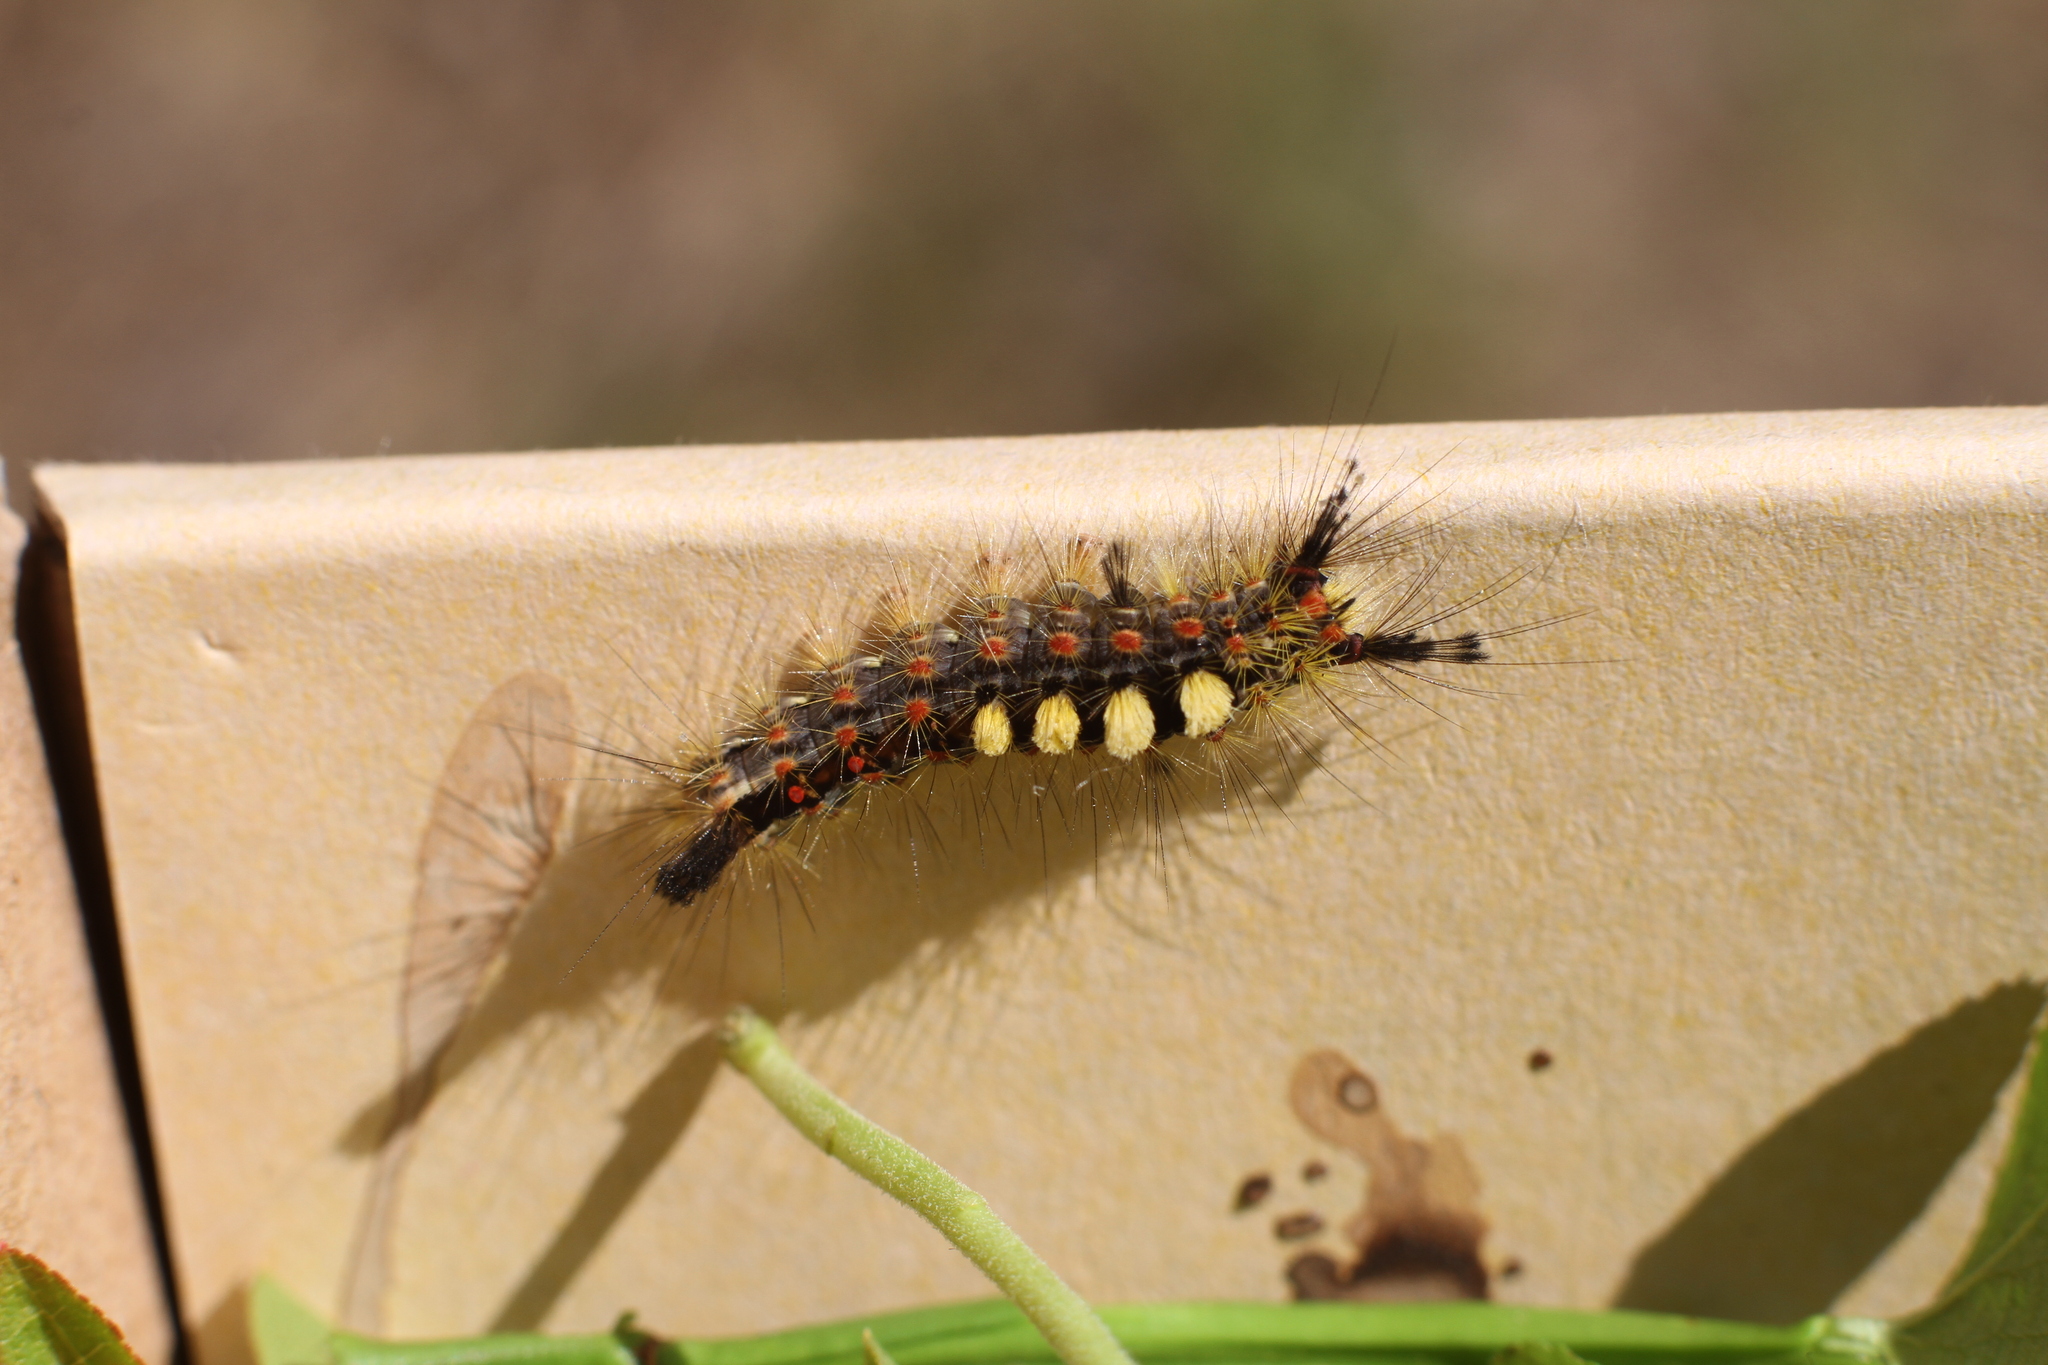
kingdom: Animalia
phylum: Arthropoda
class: Insecta
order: Lepidoptera
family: Erebidae
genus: Orgyia
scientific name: Orgyia antiqua
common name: Vapourer
